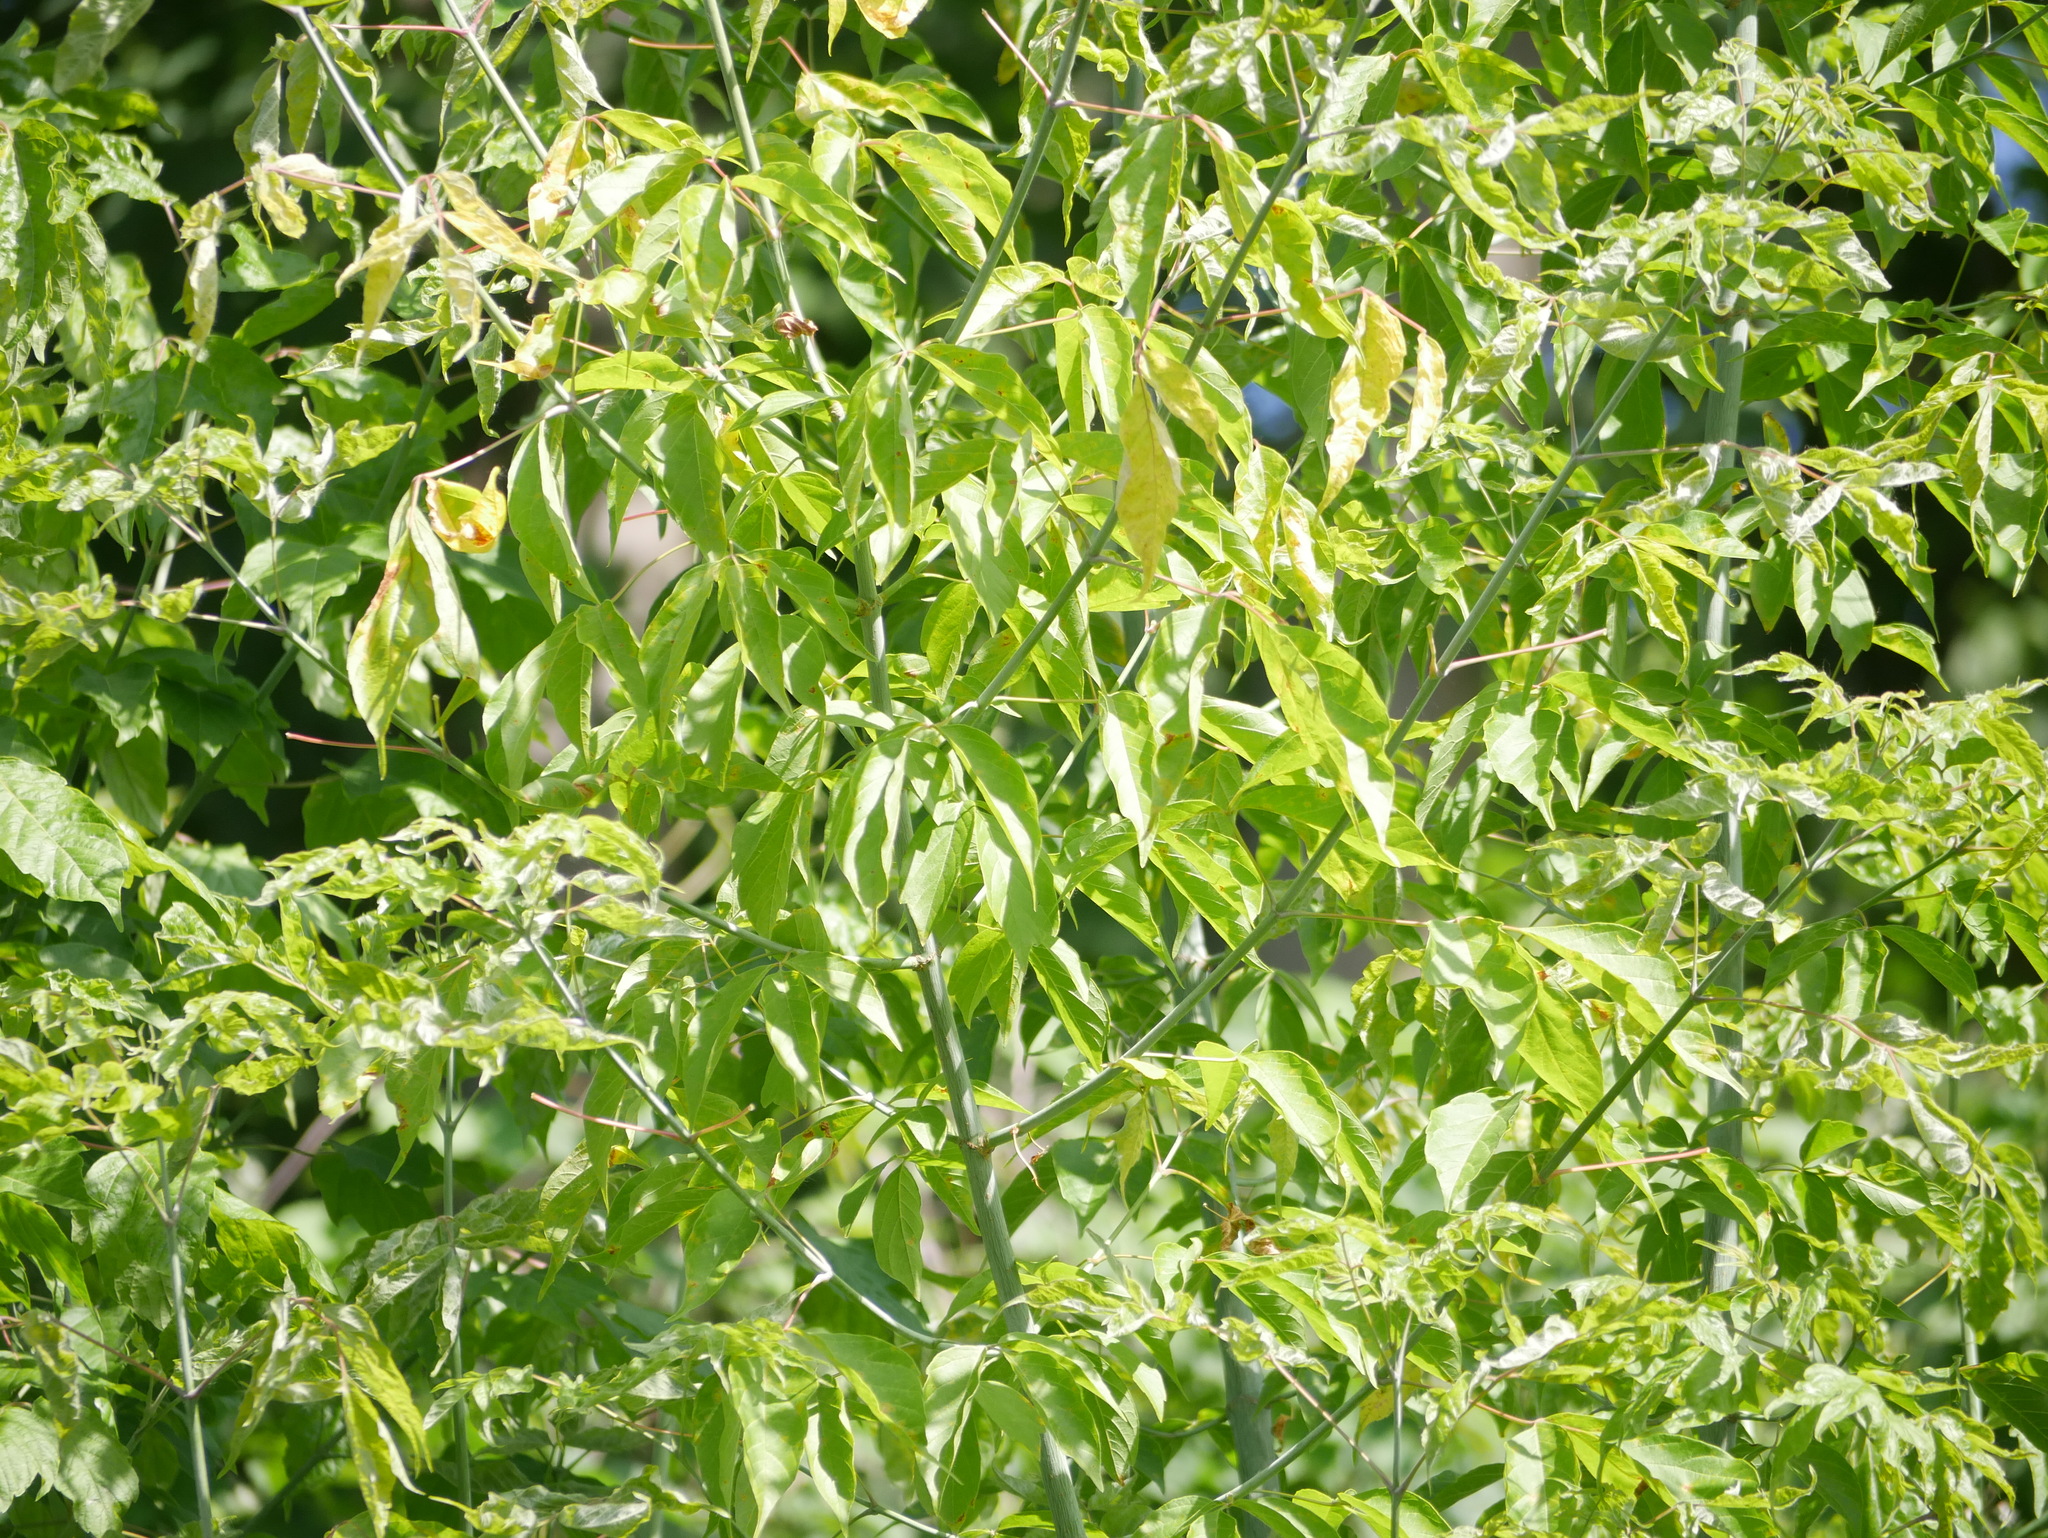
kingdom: Plantae
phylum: Tracheophyta
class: Magnoliopsida
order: Sapindales
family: Sapindaceae
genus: Acer
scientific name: Acer negundo
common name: Ashleaf maple
